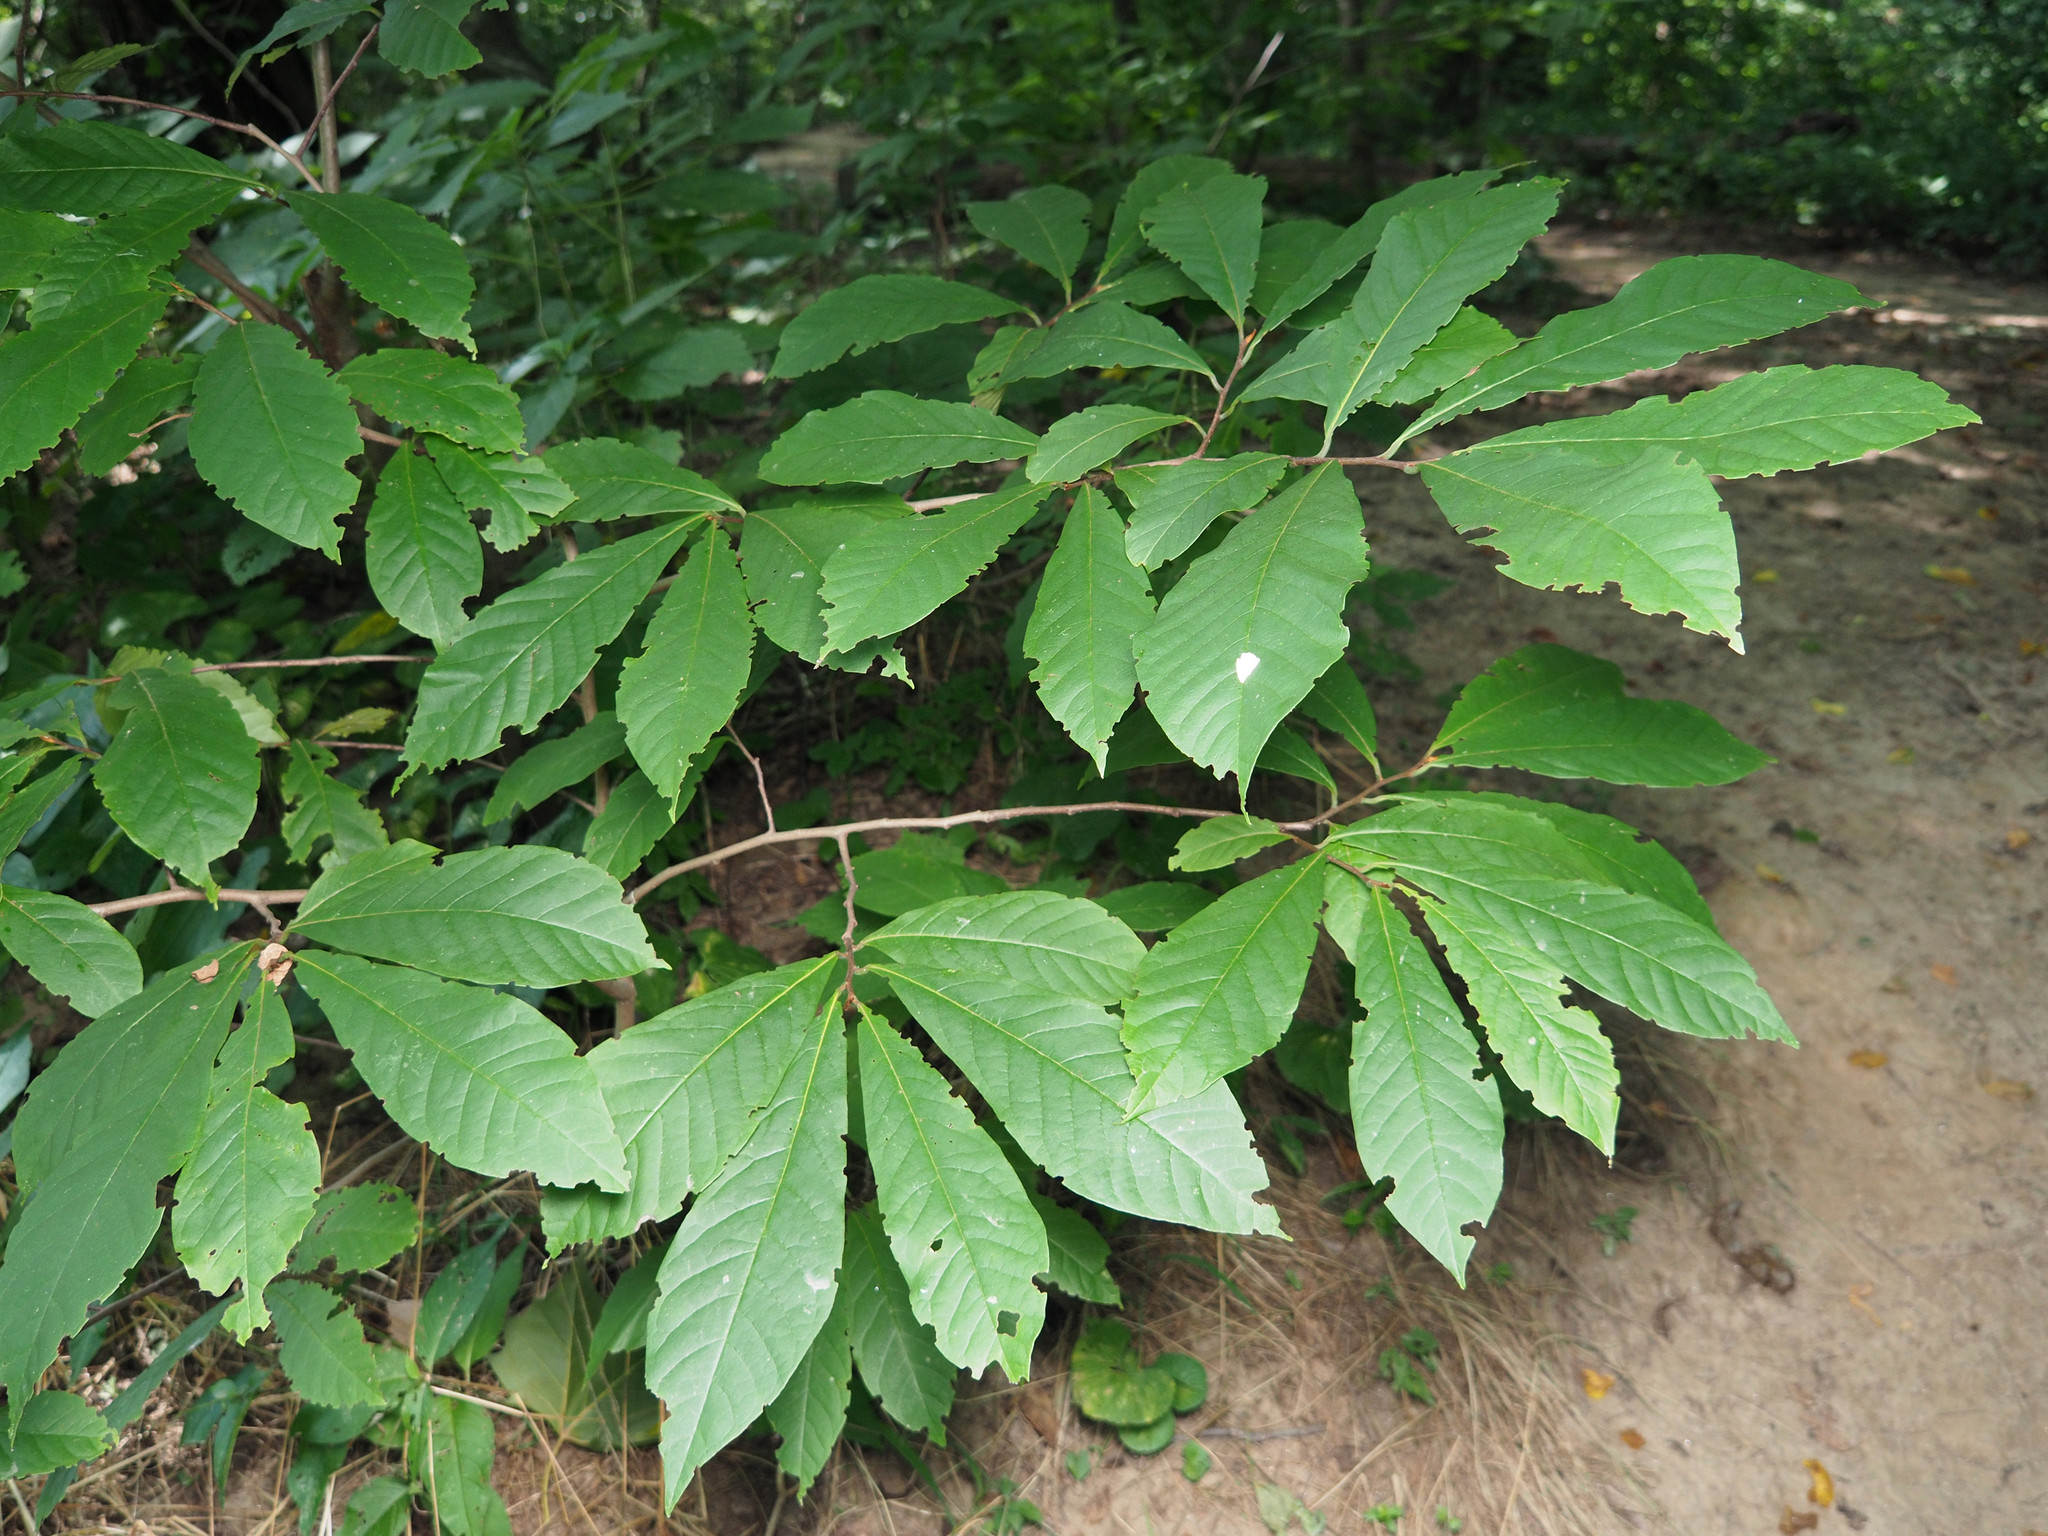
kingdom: Plantae
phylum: Tracheophyta
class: Magnoliopsida
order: Magnoliales
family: Annonaceae
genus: Asimina
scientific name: Asimina triloba
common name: Dog-banana
